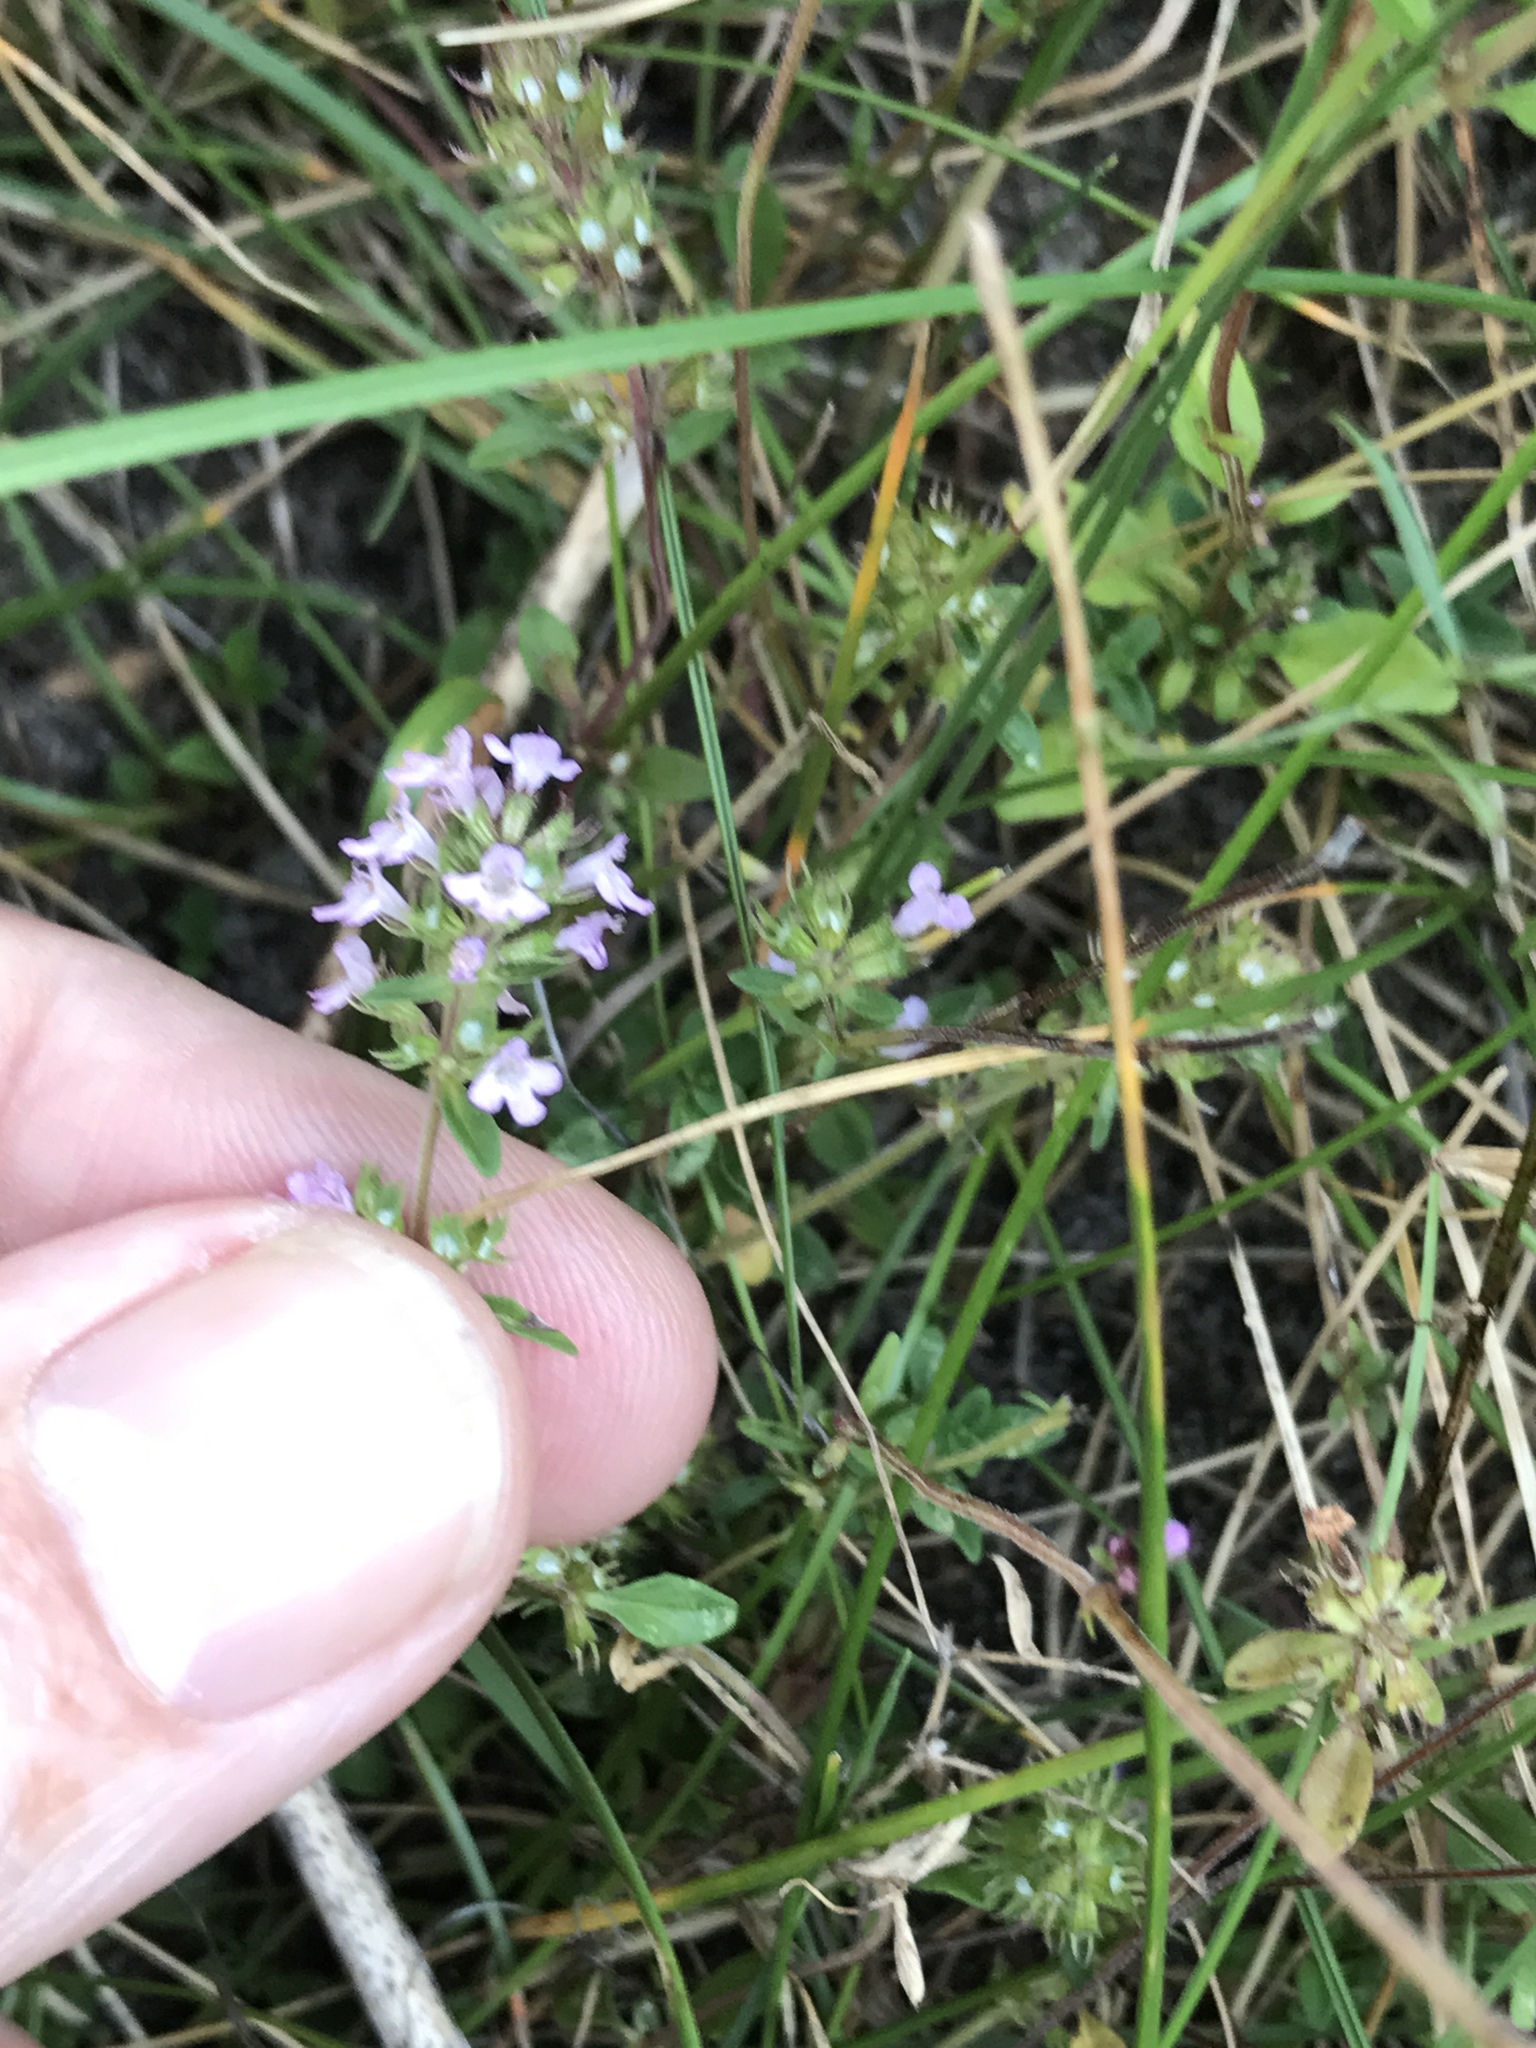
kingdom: Plantae
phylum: Tracheophyta
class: Magnoliopsida
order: Lamiales
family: Lamiaceae
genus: Thymus
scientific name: Thymus pulegioides
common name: Large thyme
